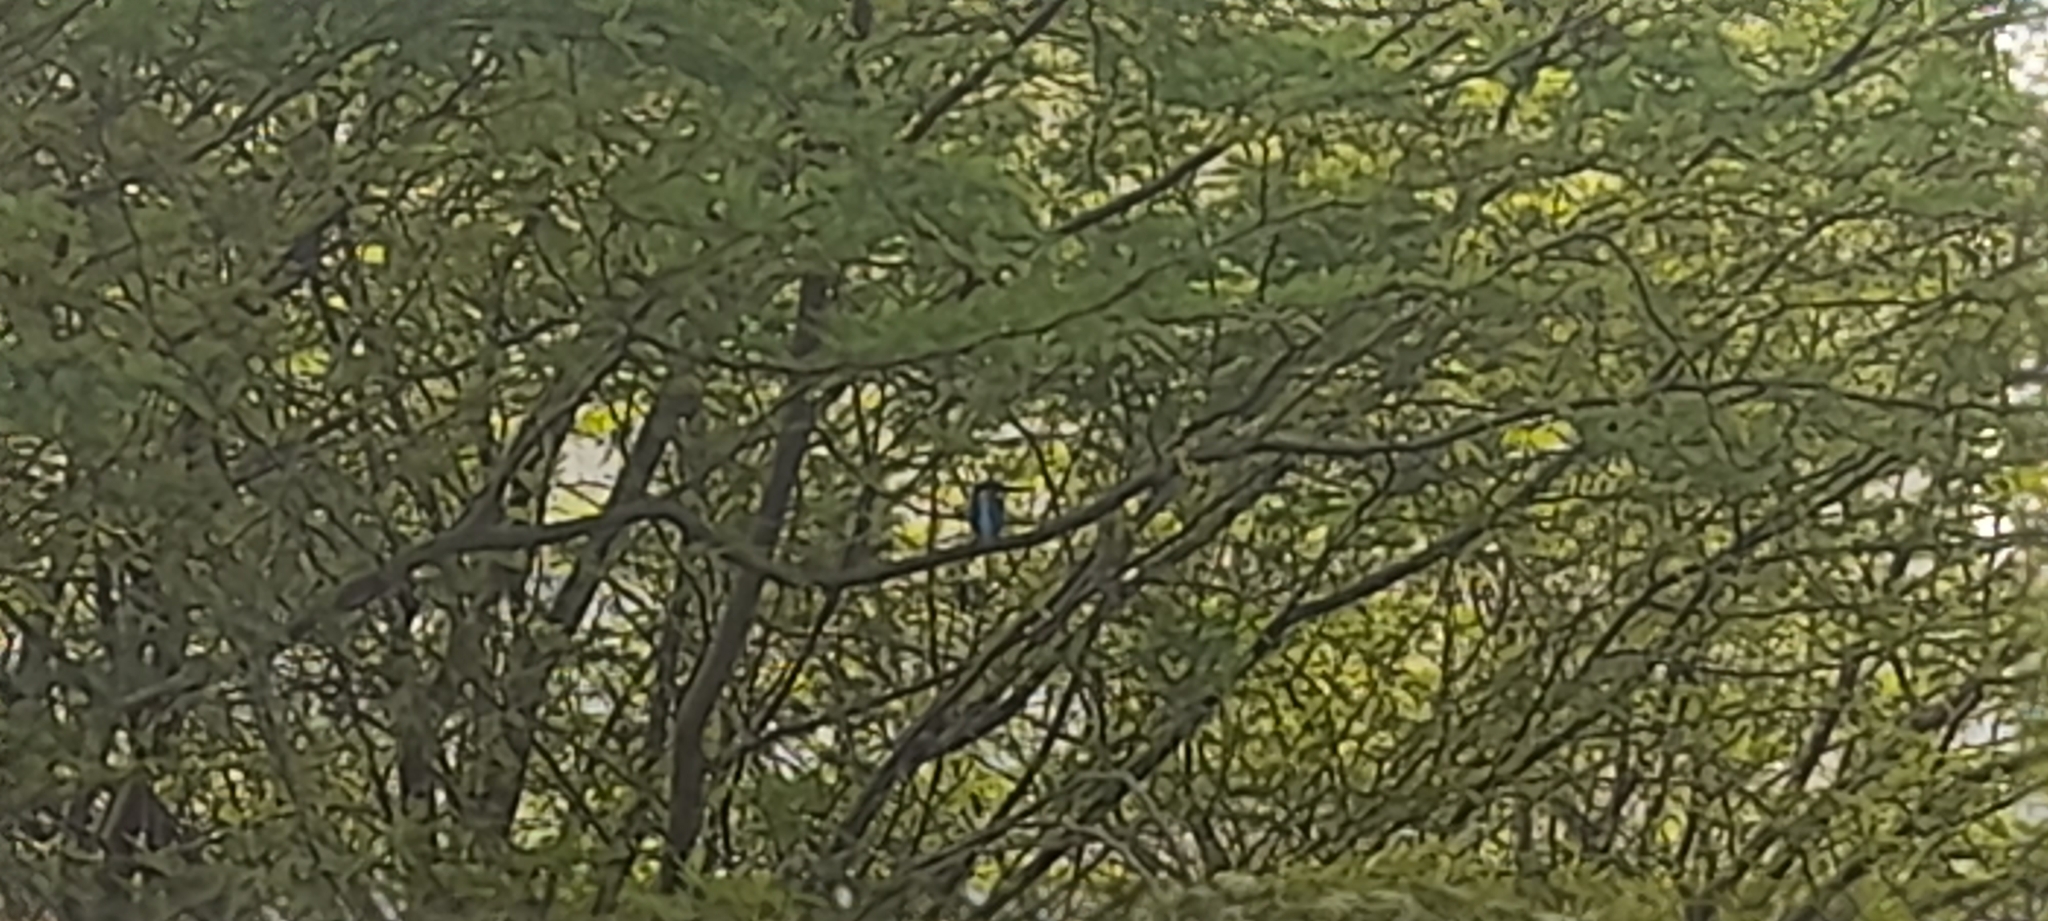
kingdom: Animalia
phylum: Chordata
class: Aves
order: Coraciiformes
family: Alcedinidae
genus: Alcedo
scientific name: Alcedo atthis
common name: Common kingfisher
